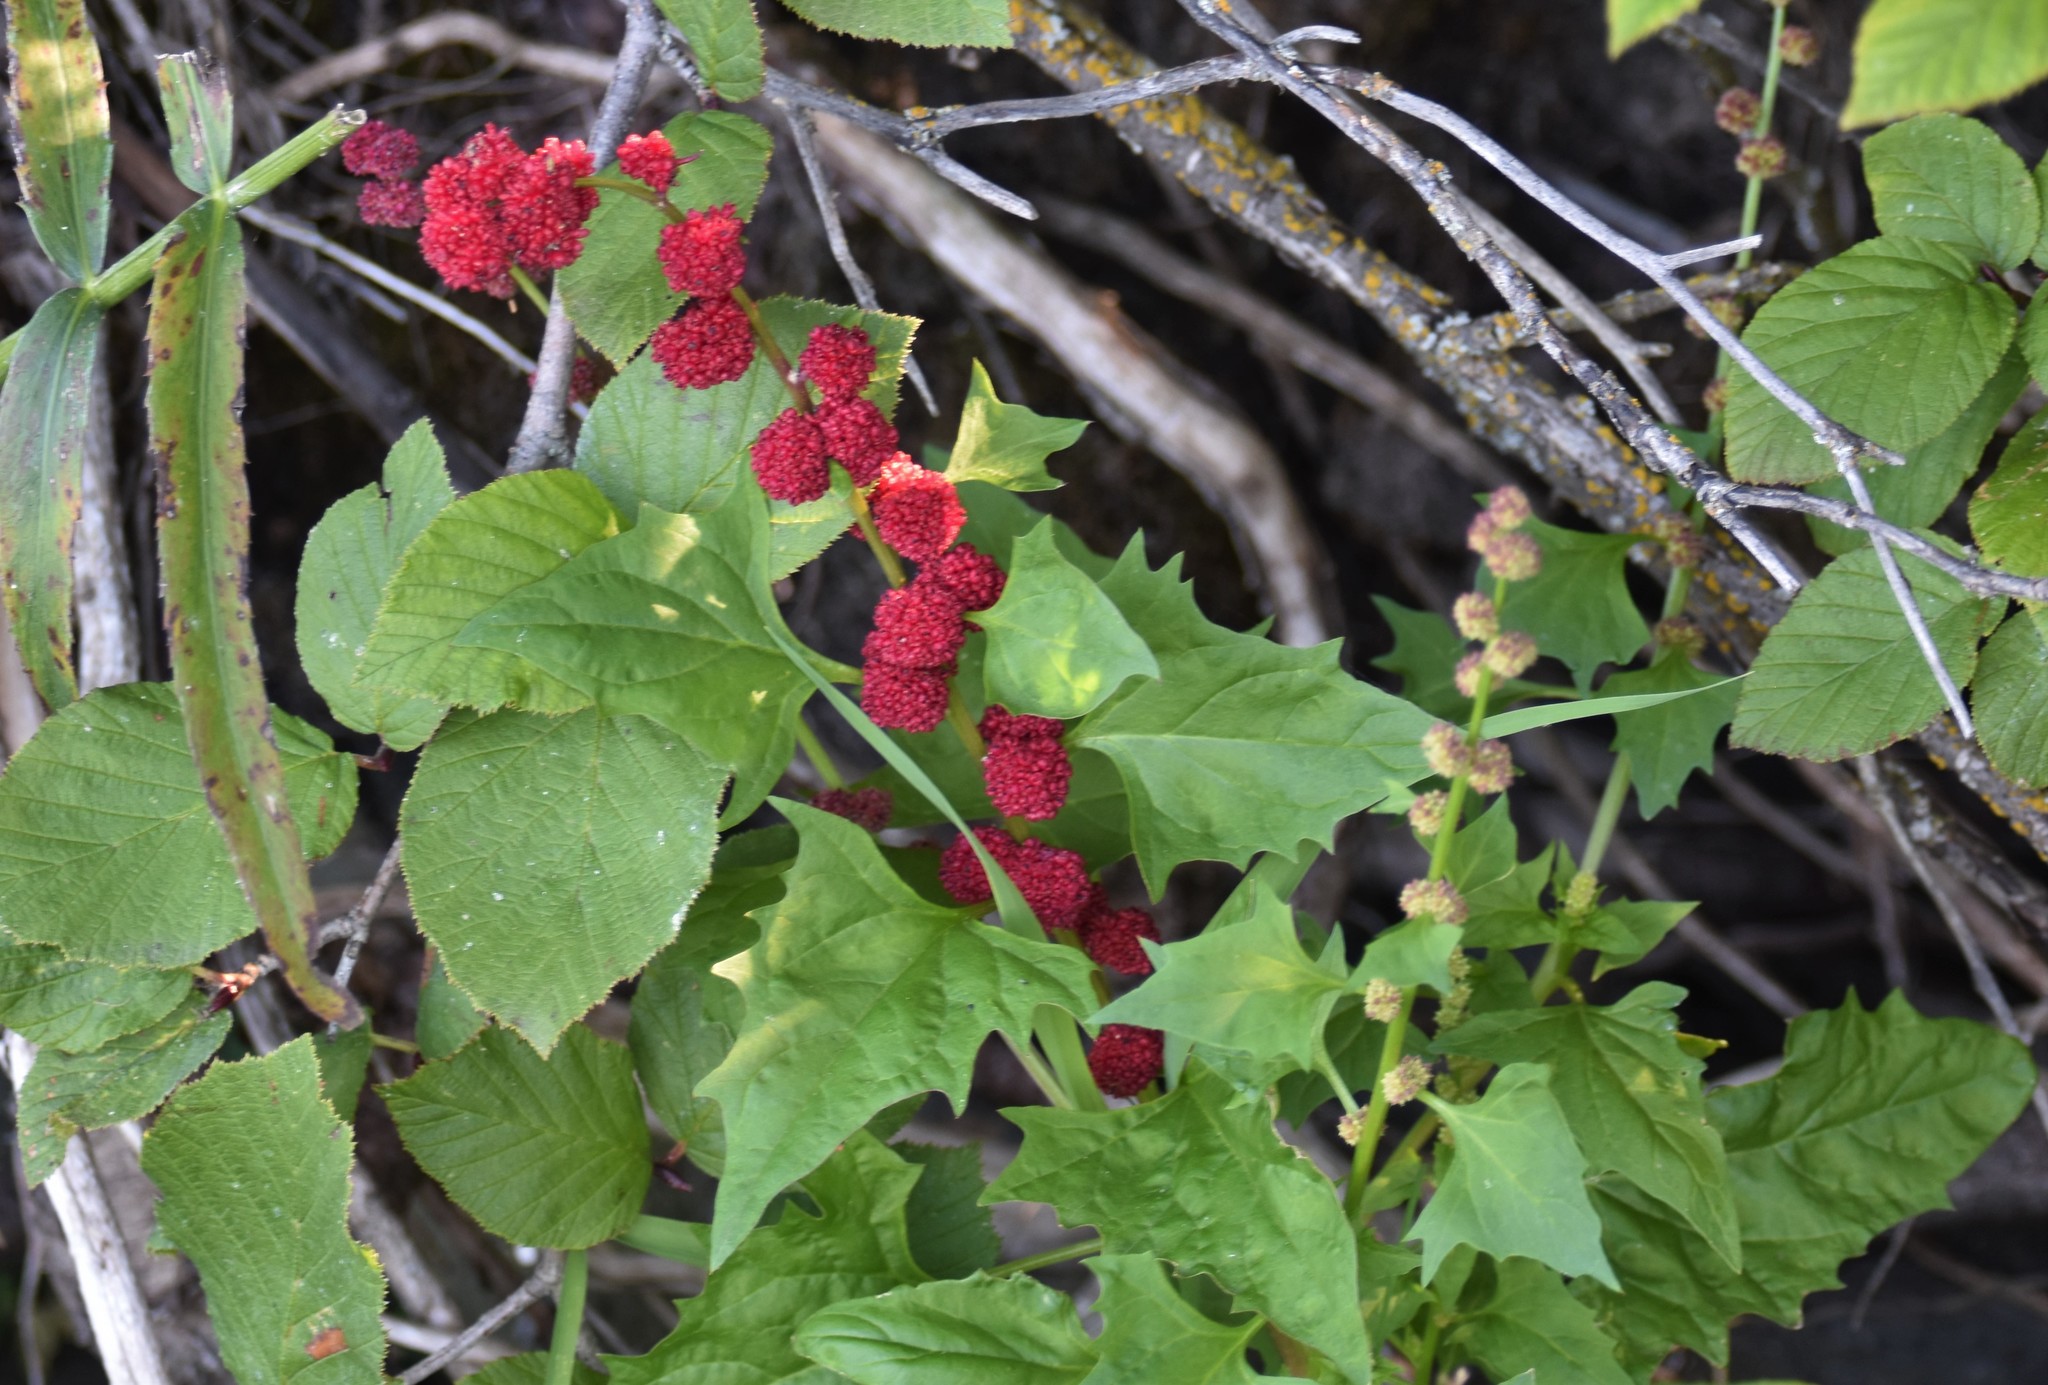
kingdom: Plantae
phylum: Tracheophyta
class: Magnoliopsida
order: Caryophyllales
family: Amaranthaceae
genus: Blitum
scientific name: Blitum capitatum
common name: Strawberry-blight
